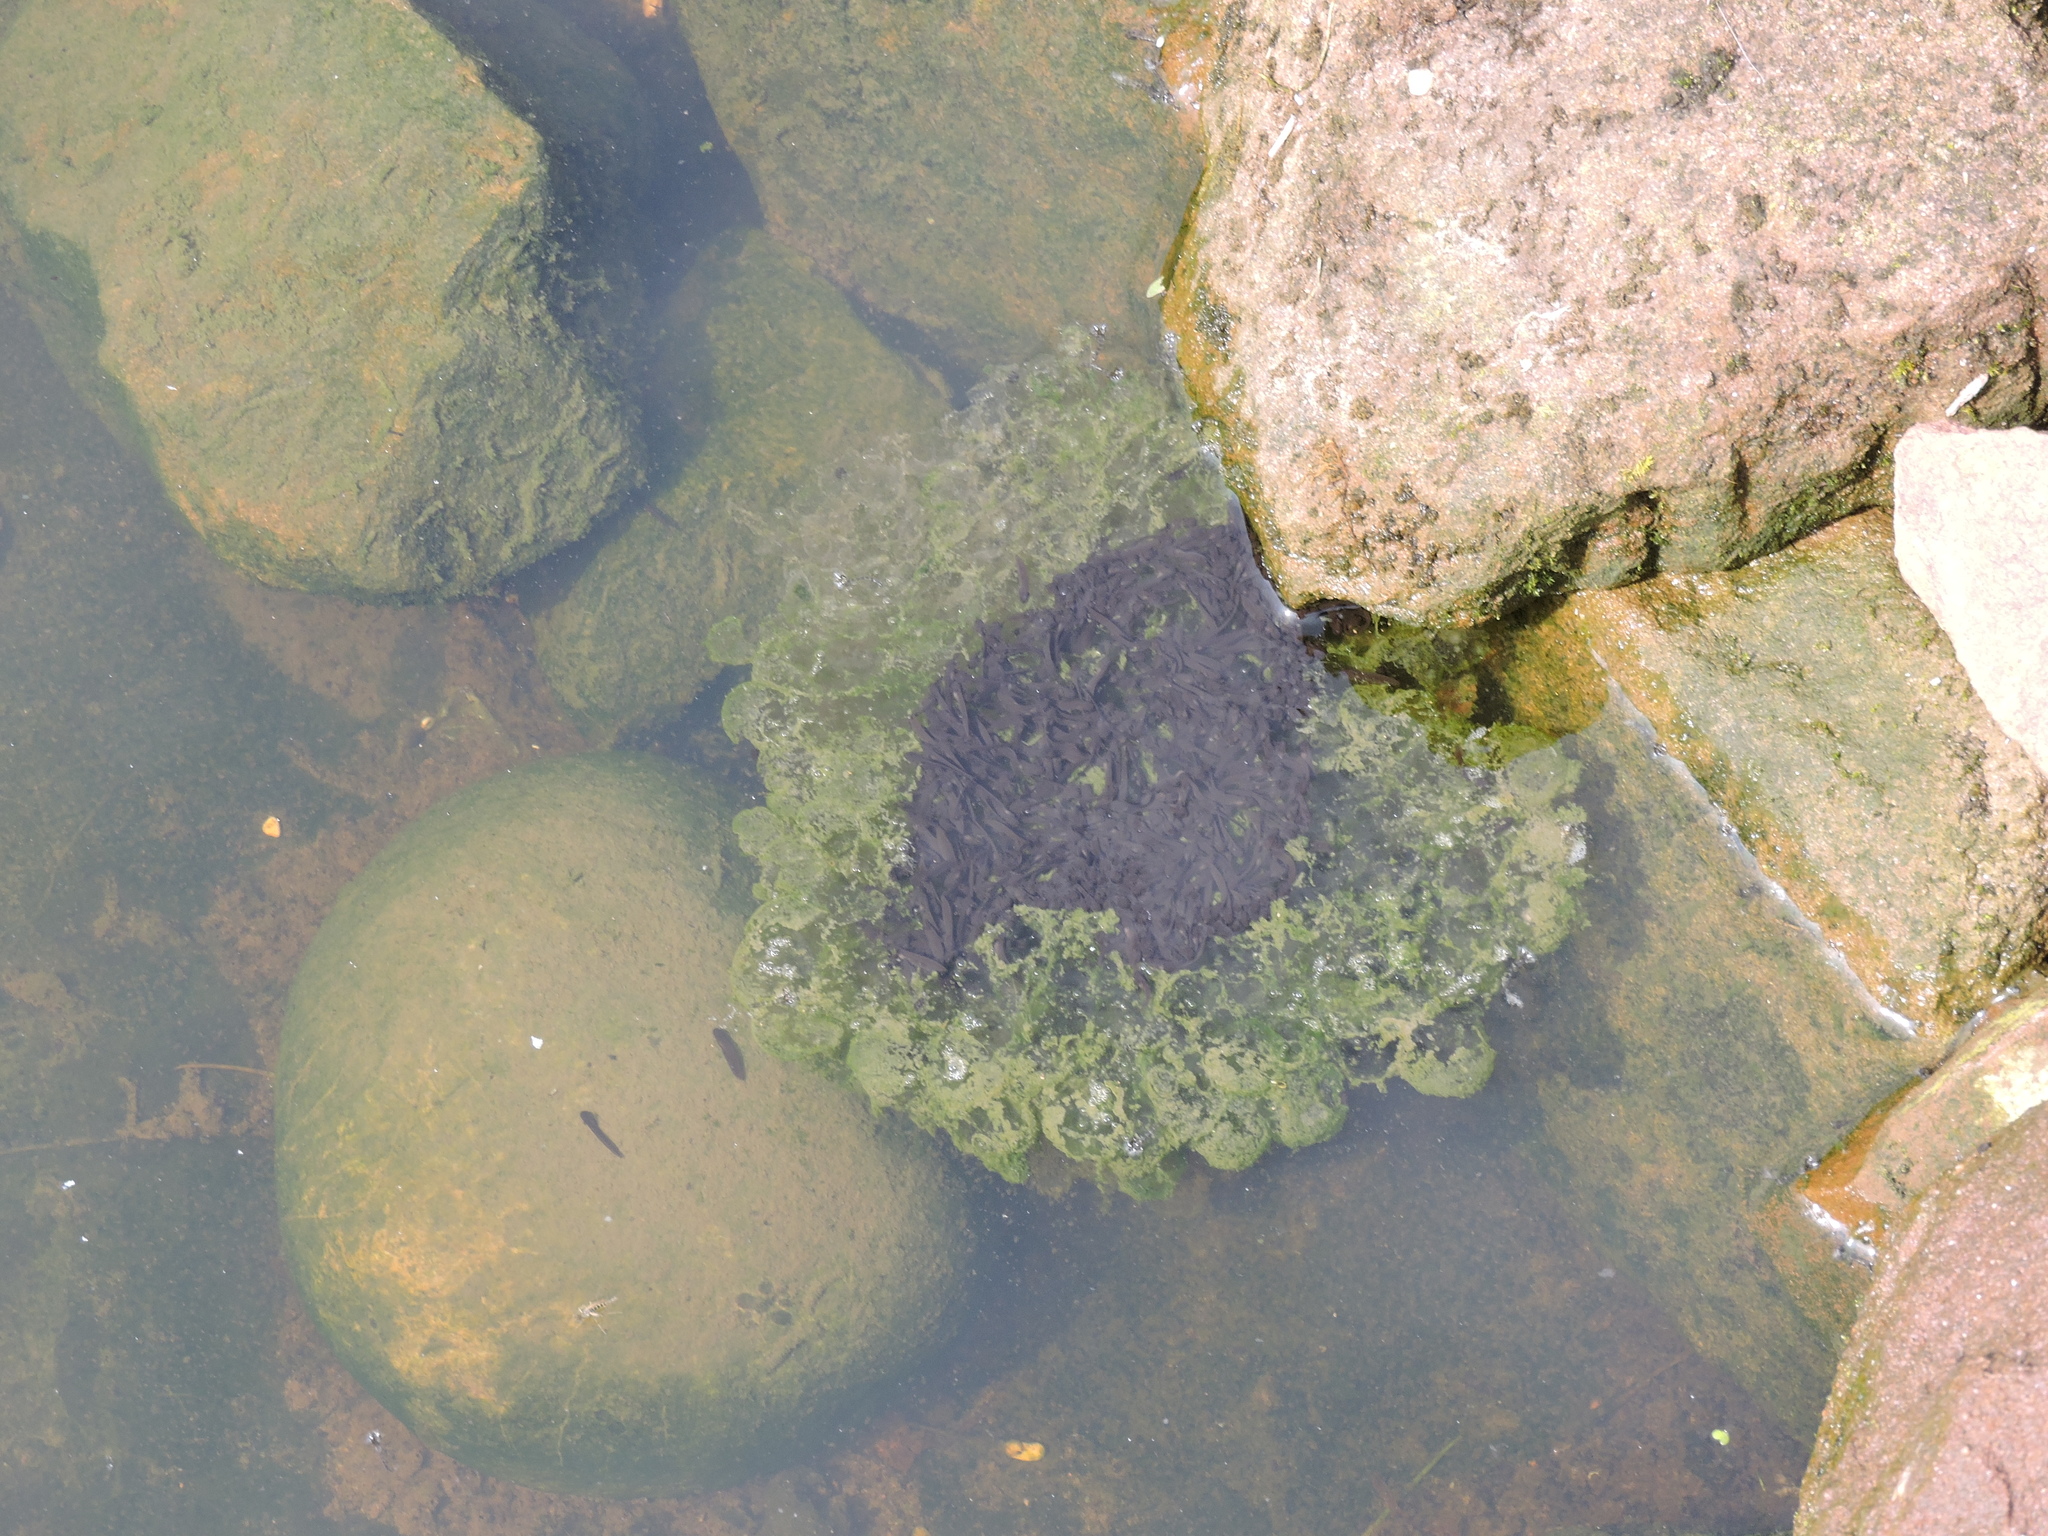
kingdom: Animalia
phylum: Chordata
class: Amphibia
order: Anura
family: Ranidae
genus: Rana
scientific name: Rana temporaria
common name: Common frog
